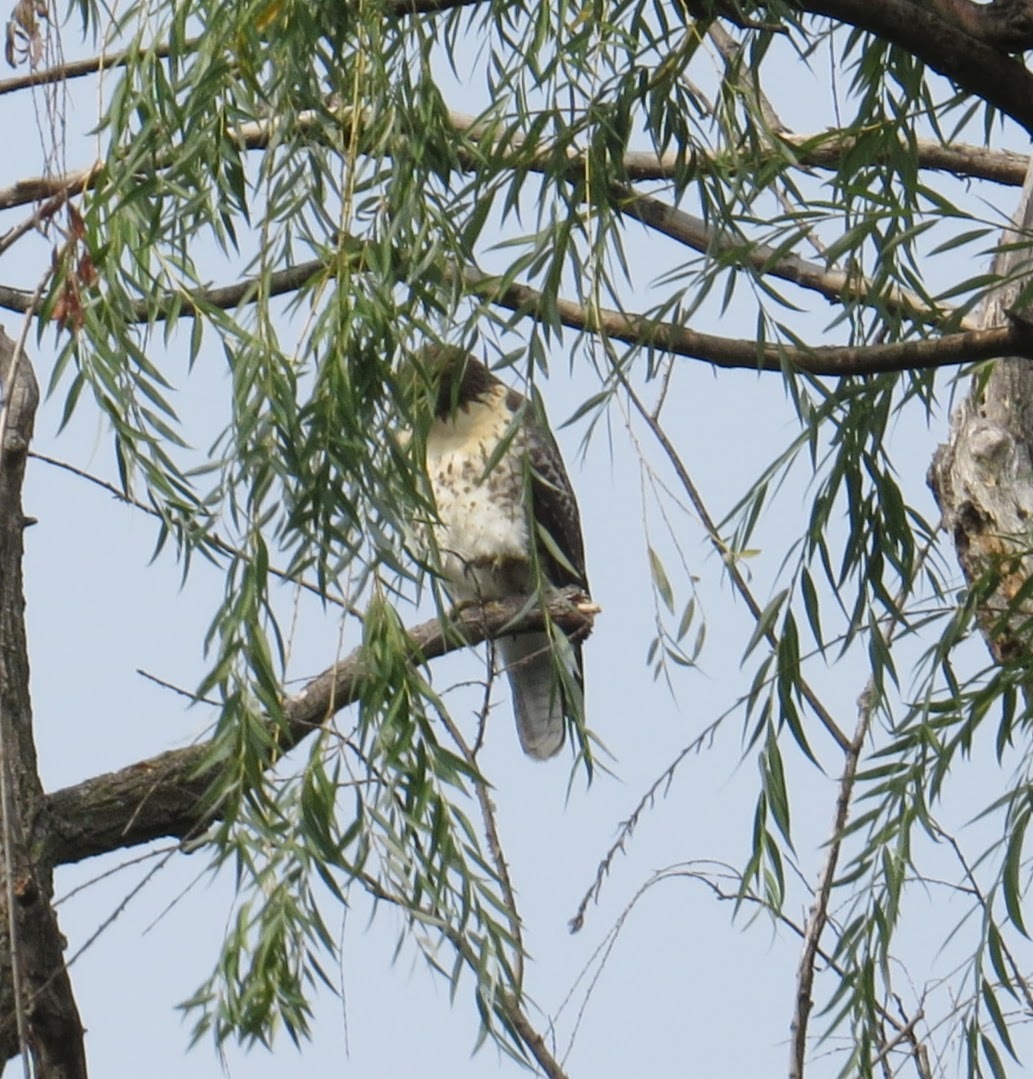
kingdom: Animalia
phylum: Chordata
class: Aves
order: Accipitriformes
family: Accipitridae
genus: Buteo
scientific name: Buteo jamaicensis
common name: Red-tailed hawk
